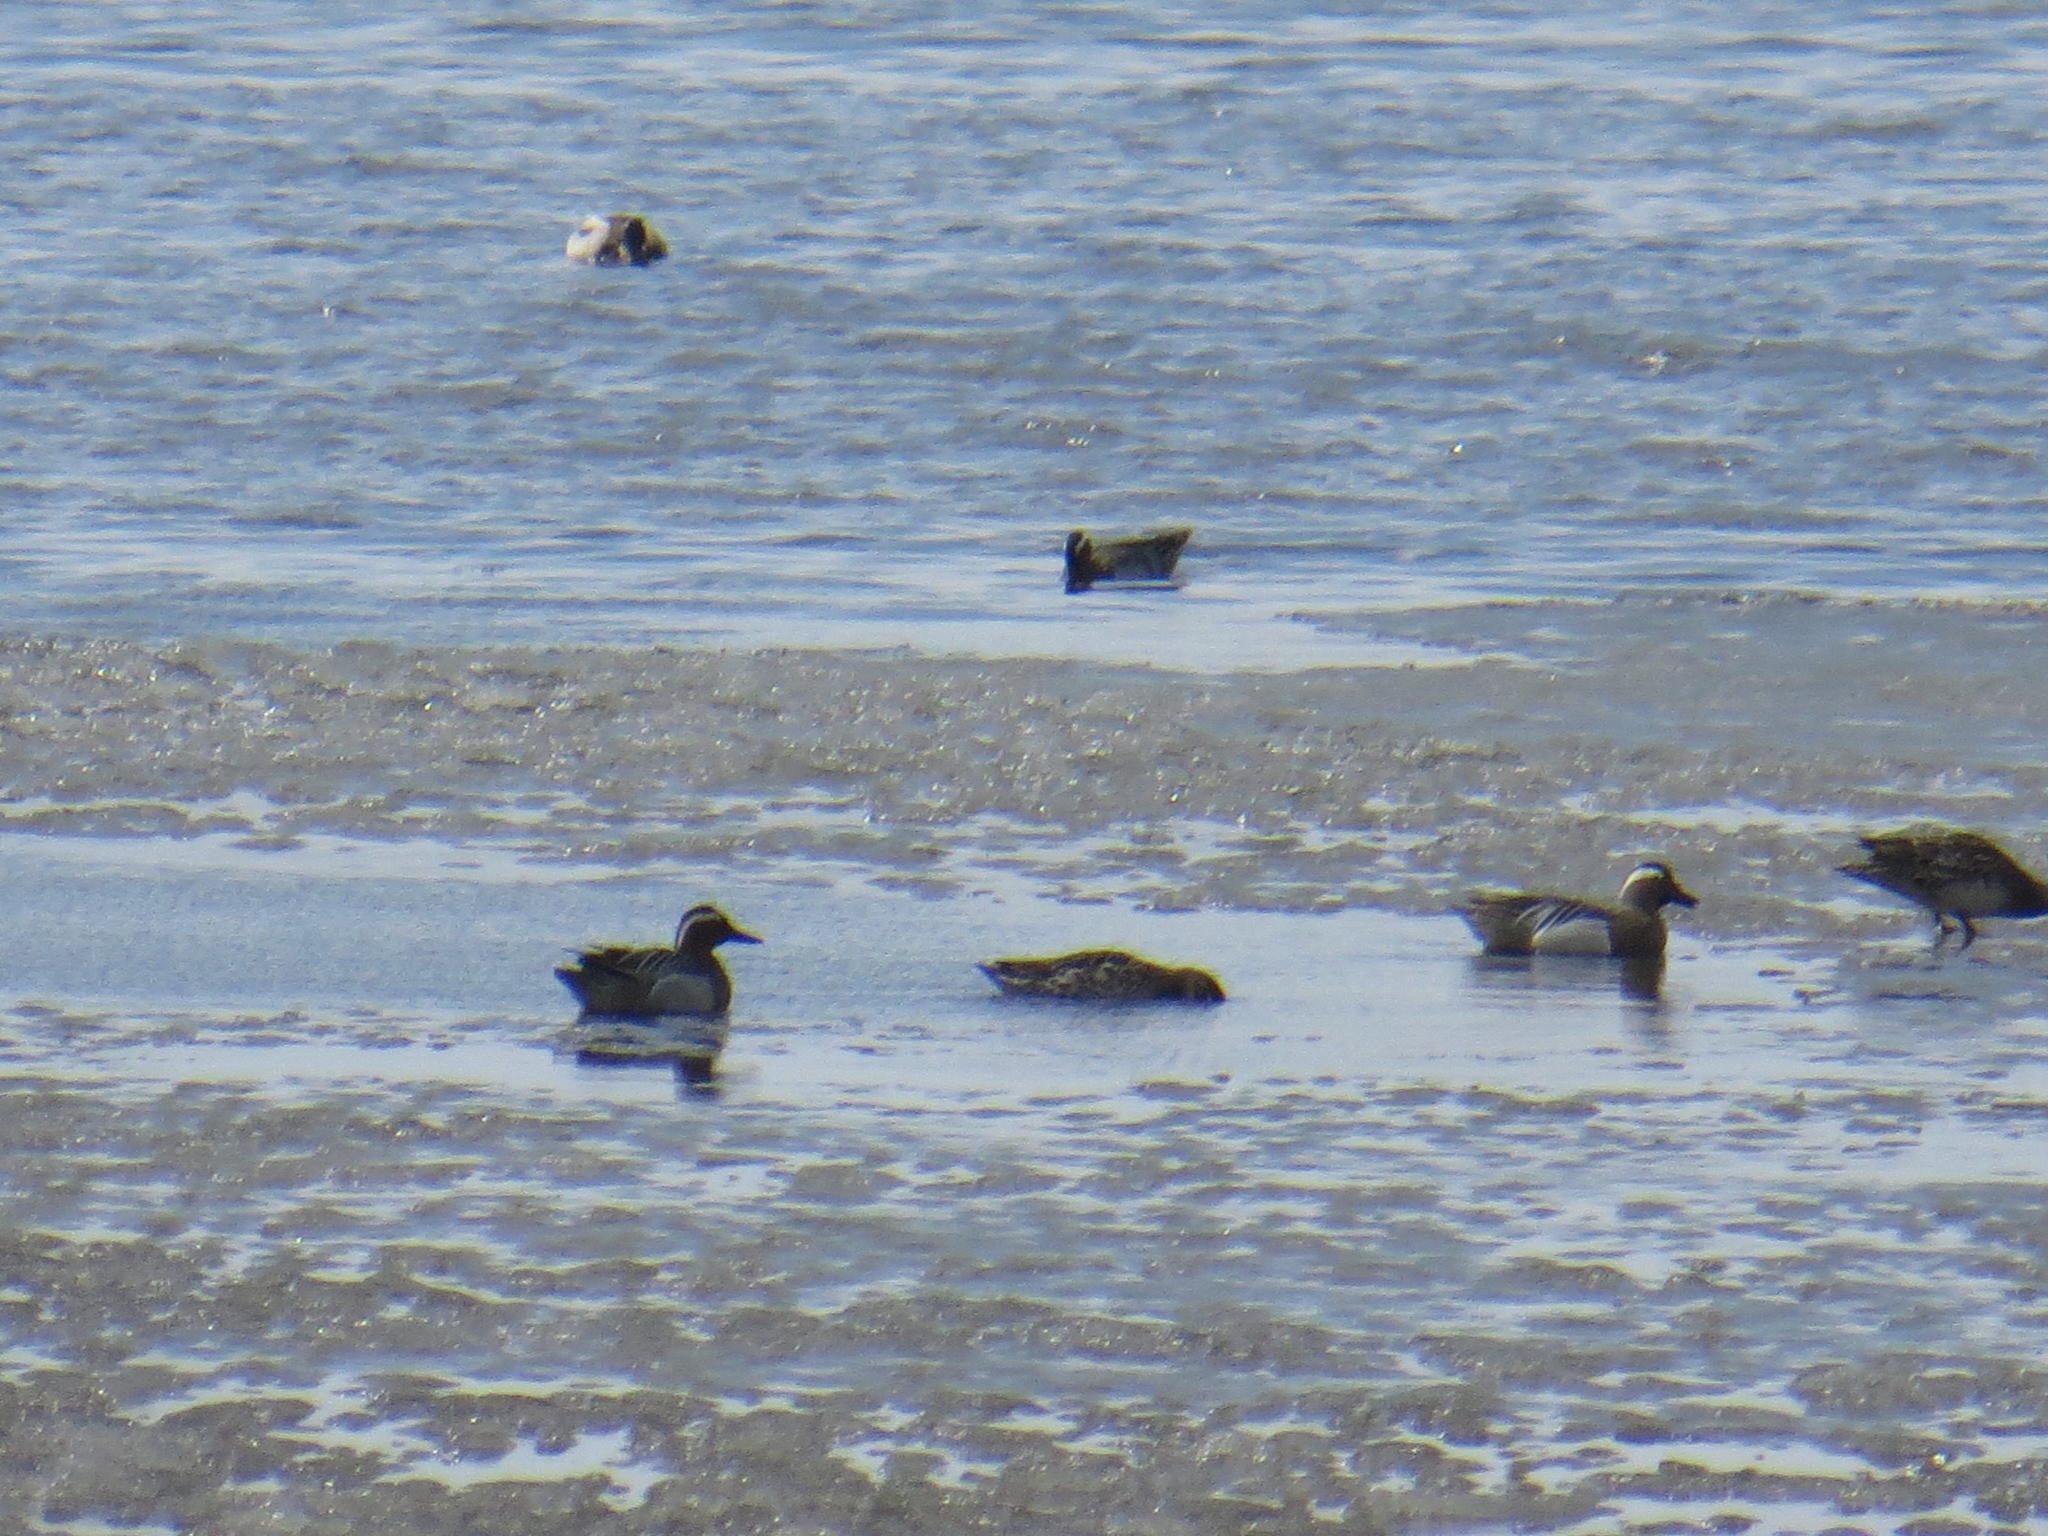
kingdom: Animalia
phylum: Chordata
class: Aves
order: Anseriformes
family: Anatidae
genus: Spatula
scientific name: Spatula querquedula
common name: Garganey
